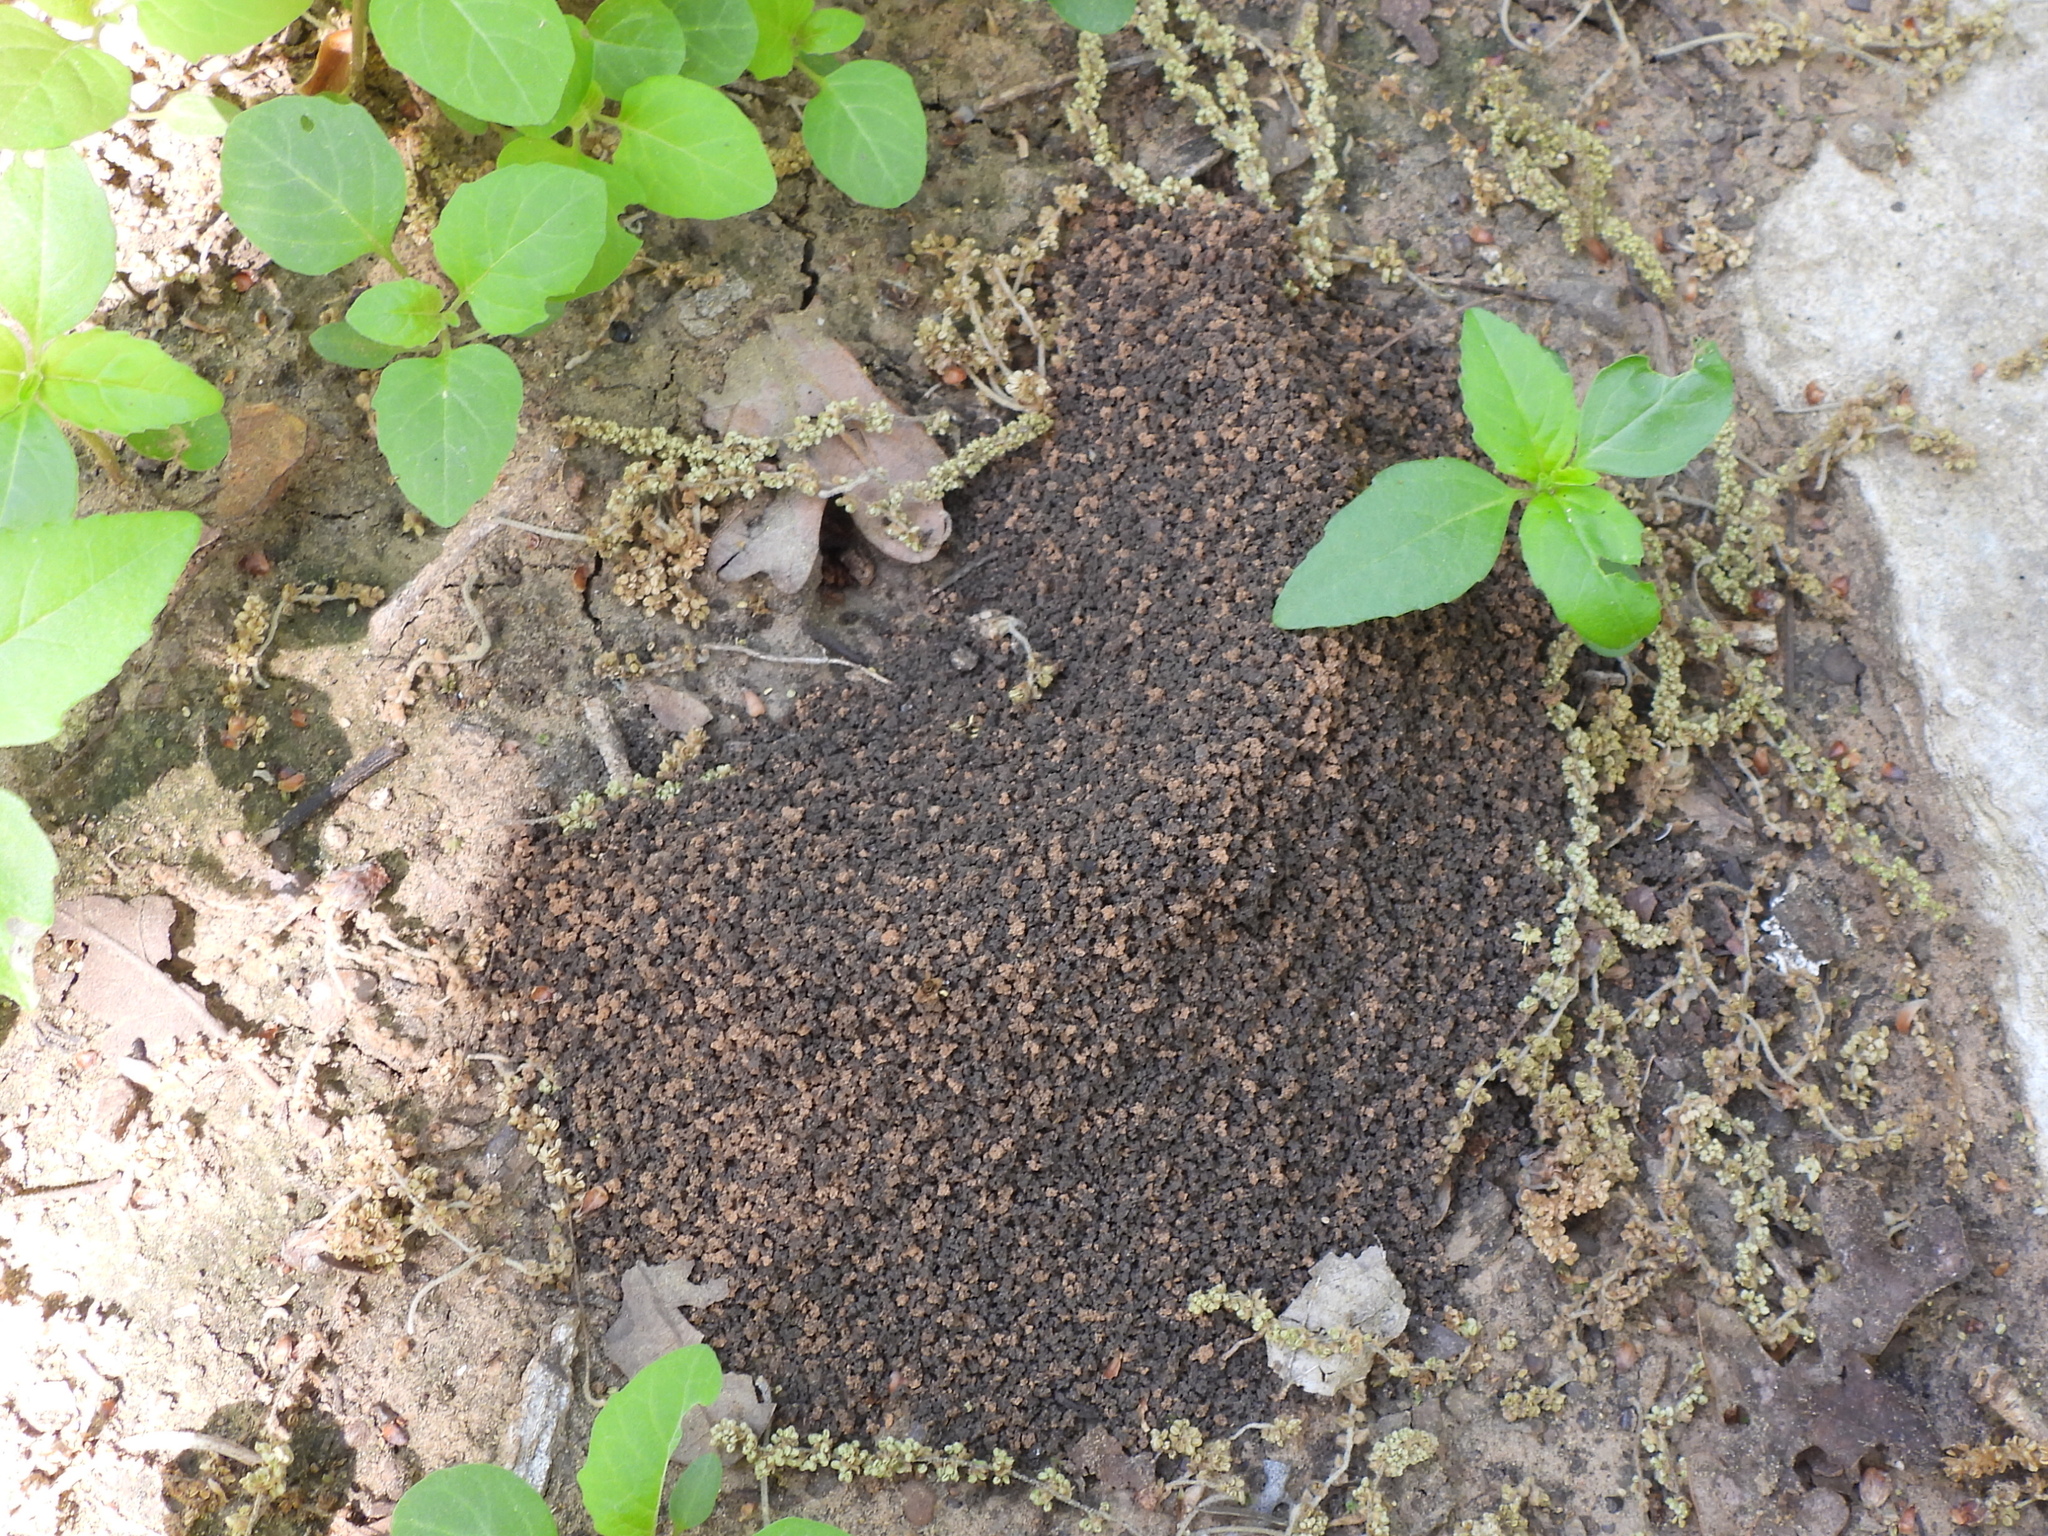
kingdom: Animalia
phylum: Arthropoda
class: Insecta
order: Hymenoptera
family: Formicidae
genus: Trachymyrmex
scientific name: Trachymyrmex septentrionalis
